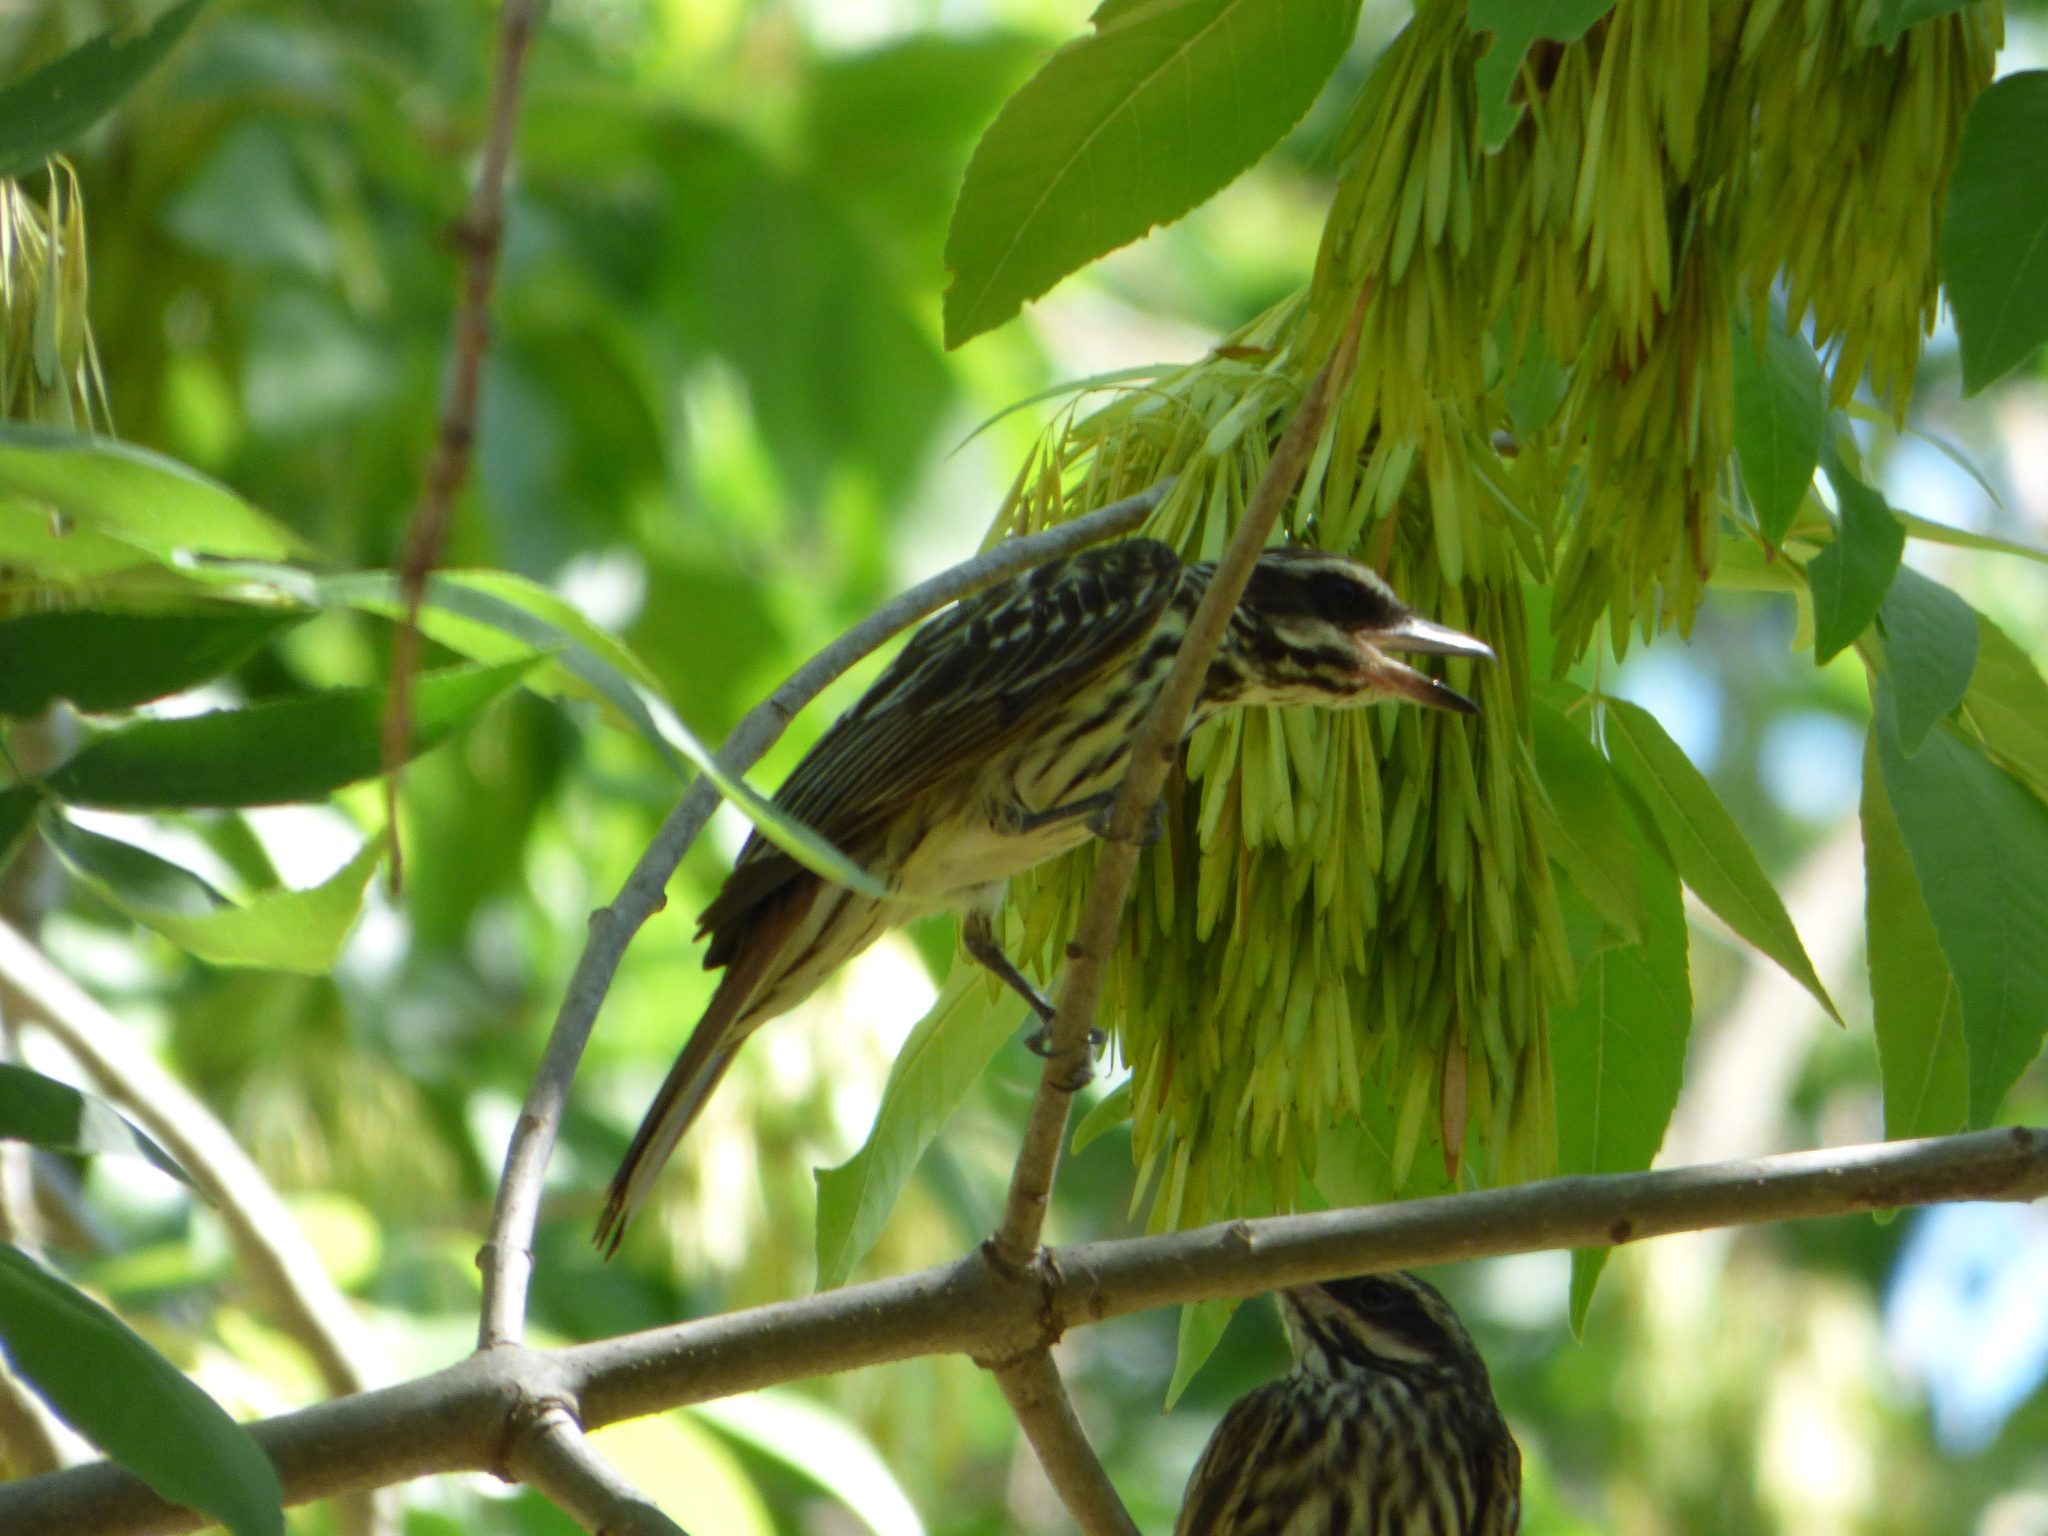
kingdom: Animalia
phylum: Chordata
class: Aves
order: Passeriformes
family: Tyrannidae
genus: Myiodynastes
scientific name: Myiodynastes maculatus
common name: Streaked flycatcher
